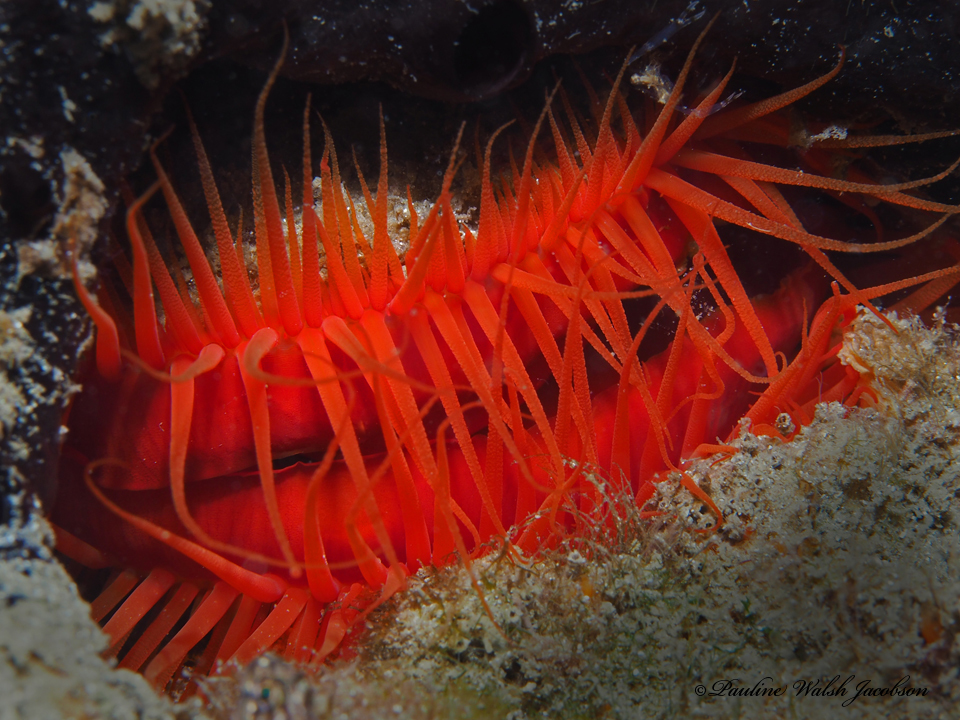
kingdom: Animalia
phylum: Mollusca
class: Bivalvia
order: Limida
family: Limidae
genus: Ctenoides
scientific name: Ctenoides scaber
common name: Rough fileclam
